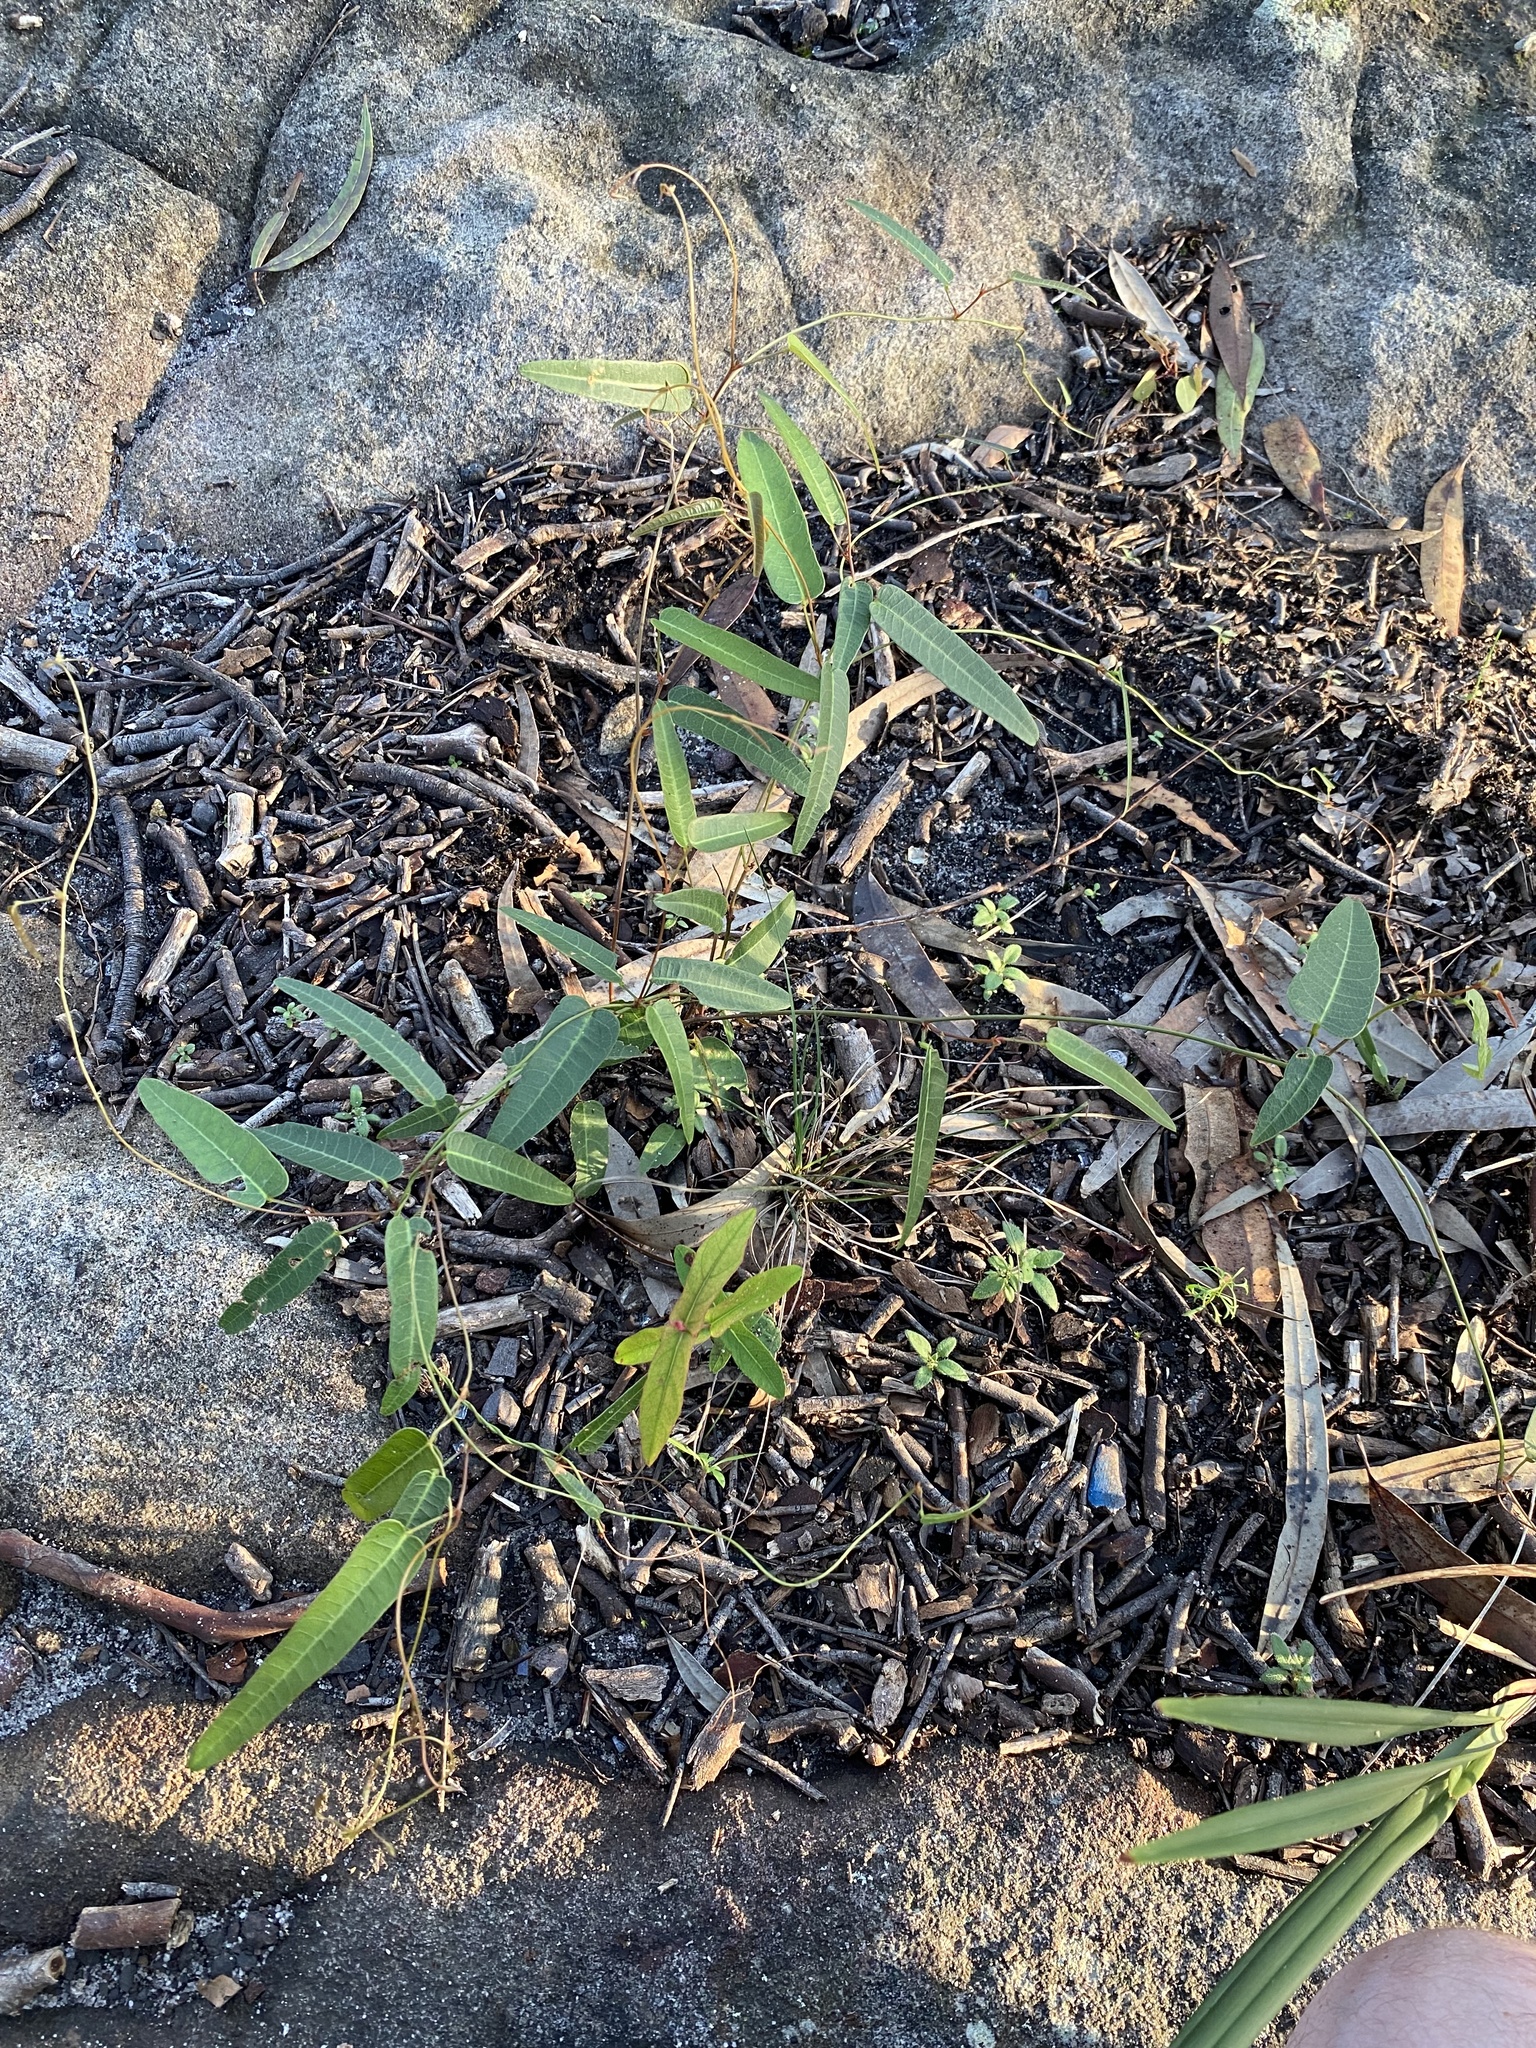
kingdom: Plantae
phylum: Tracheophyta
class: Magnoliopsida
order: Fabales
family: Fabaceae
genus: Hardenbergia
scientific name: Hardenbergia violacea
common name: Coral-pea
